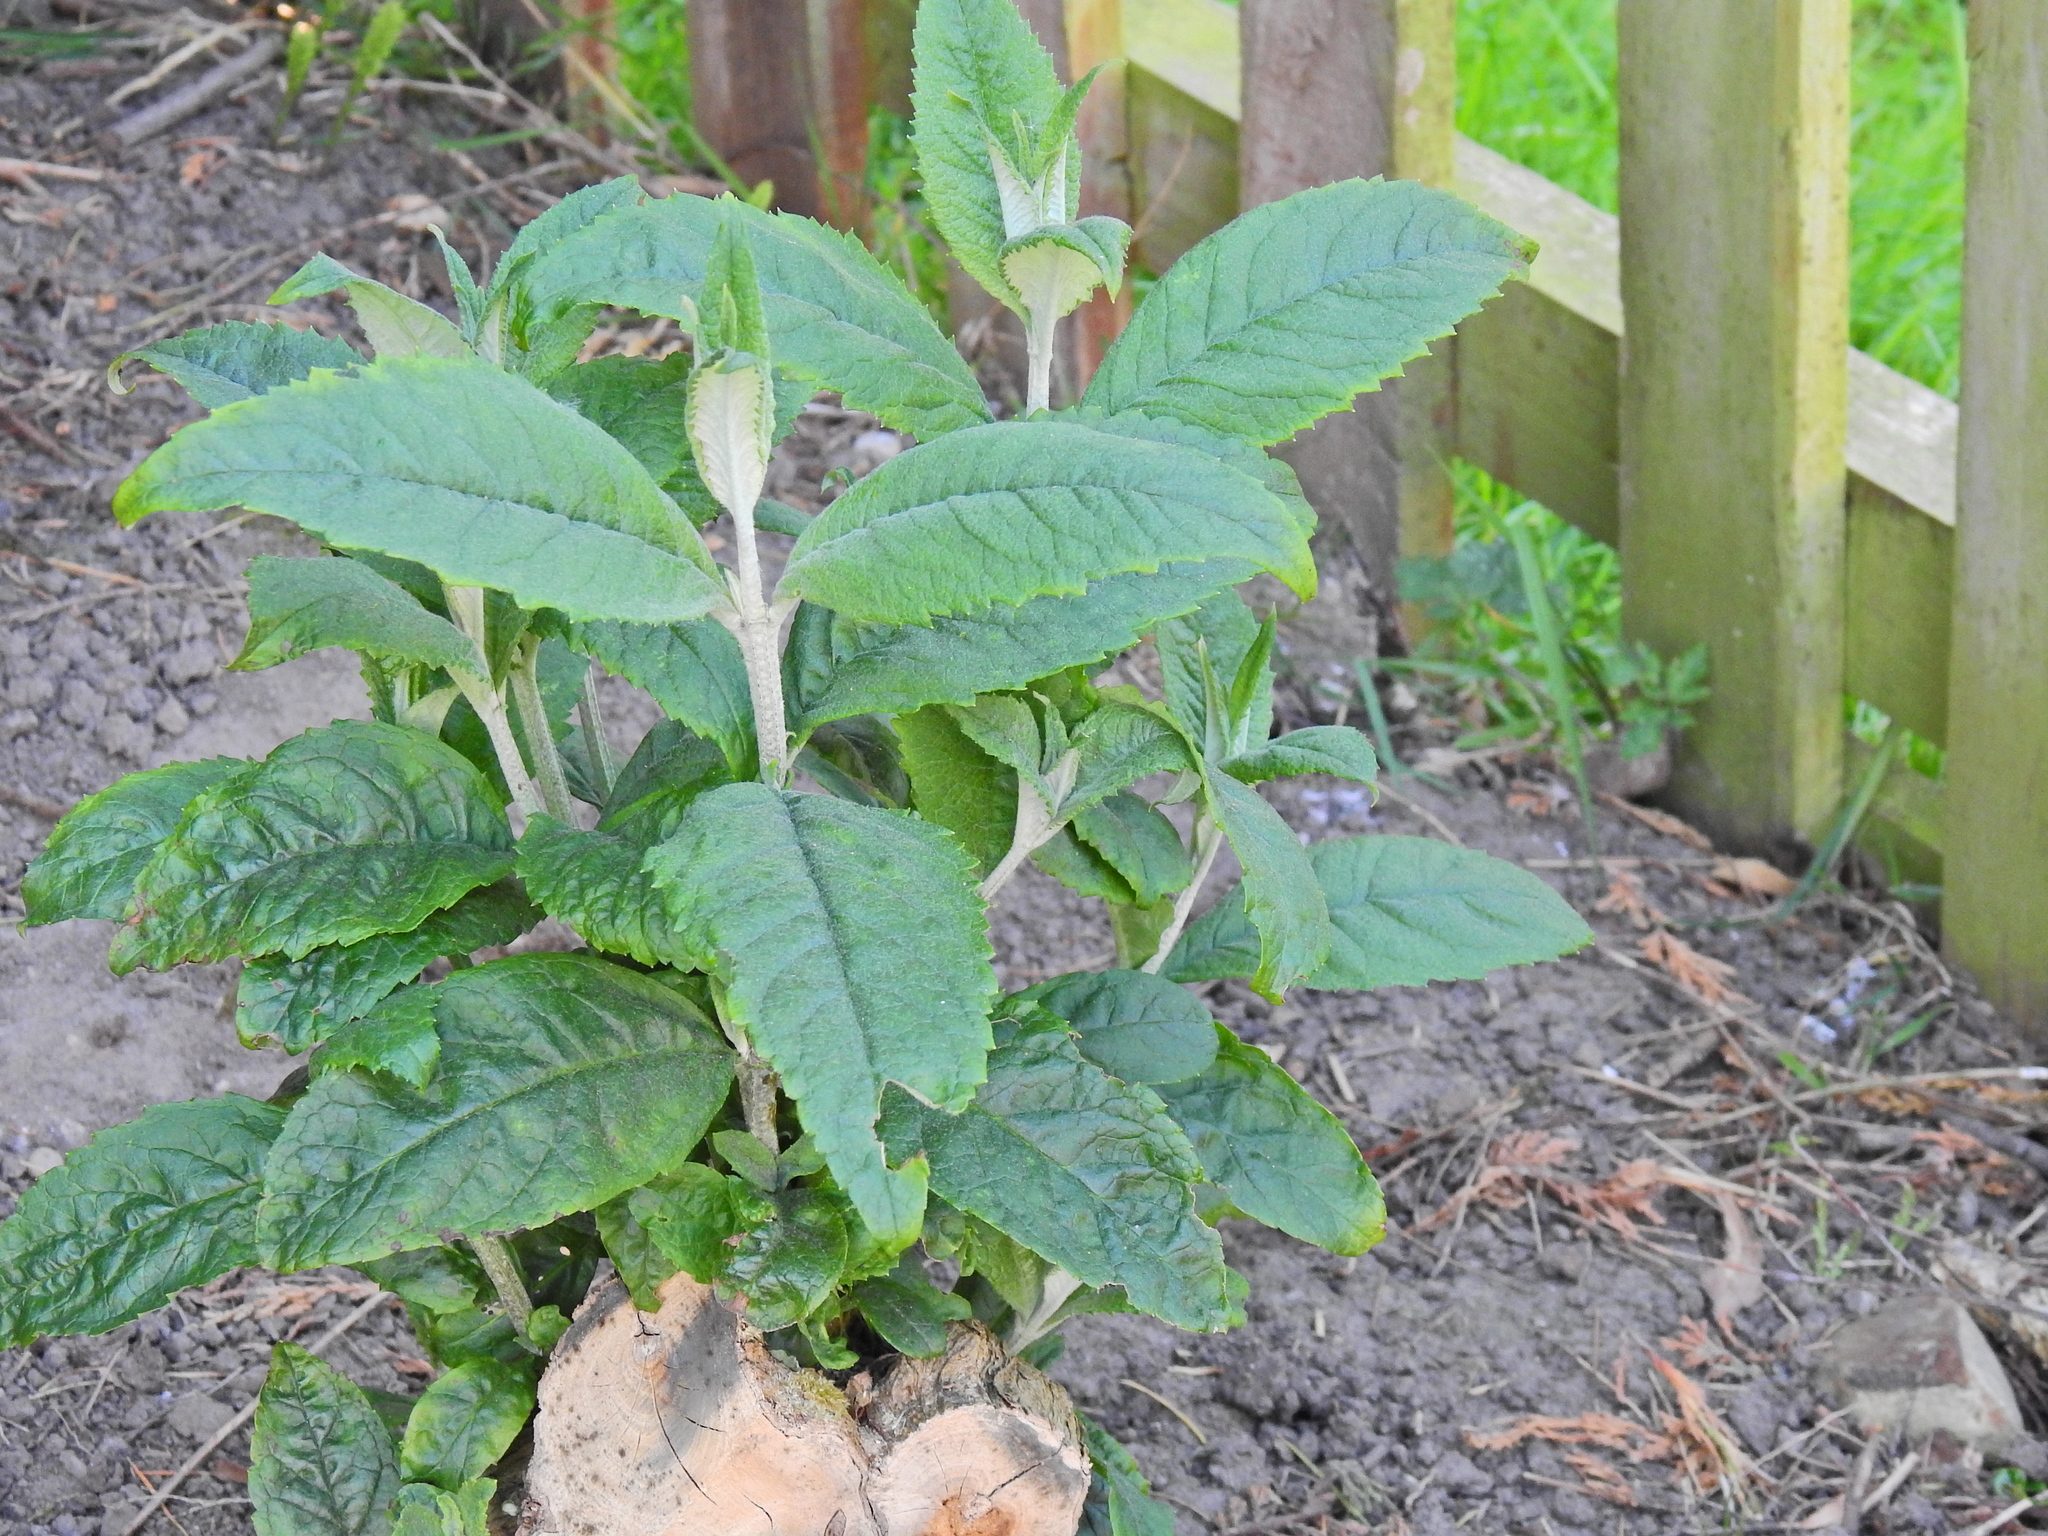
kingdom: Plantae
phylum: Tracheophyta
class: Magnoliopsida
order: Lamiales
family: Scrophulariaceae
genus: Buddleja
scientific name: Buddleja davidii
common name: Butterfly-bush
